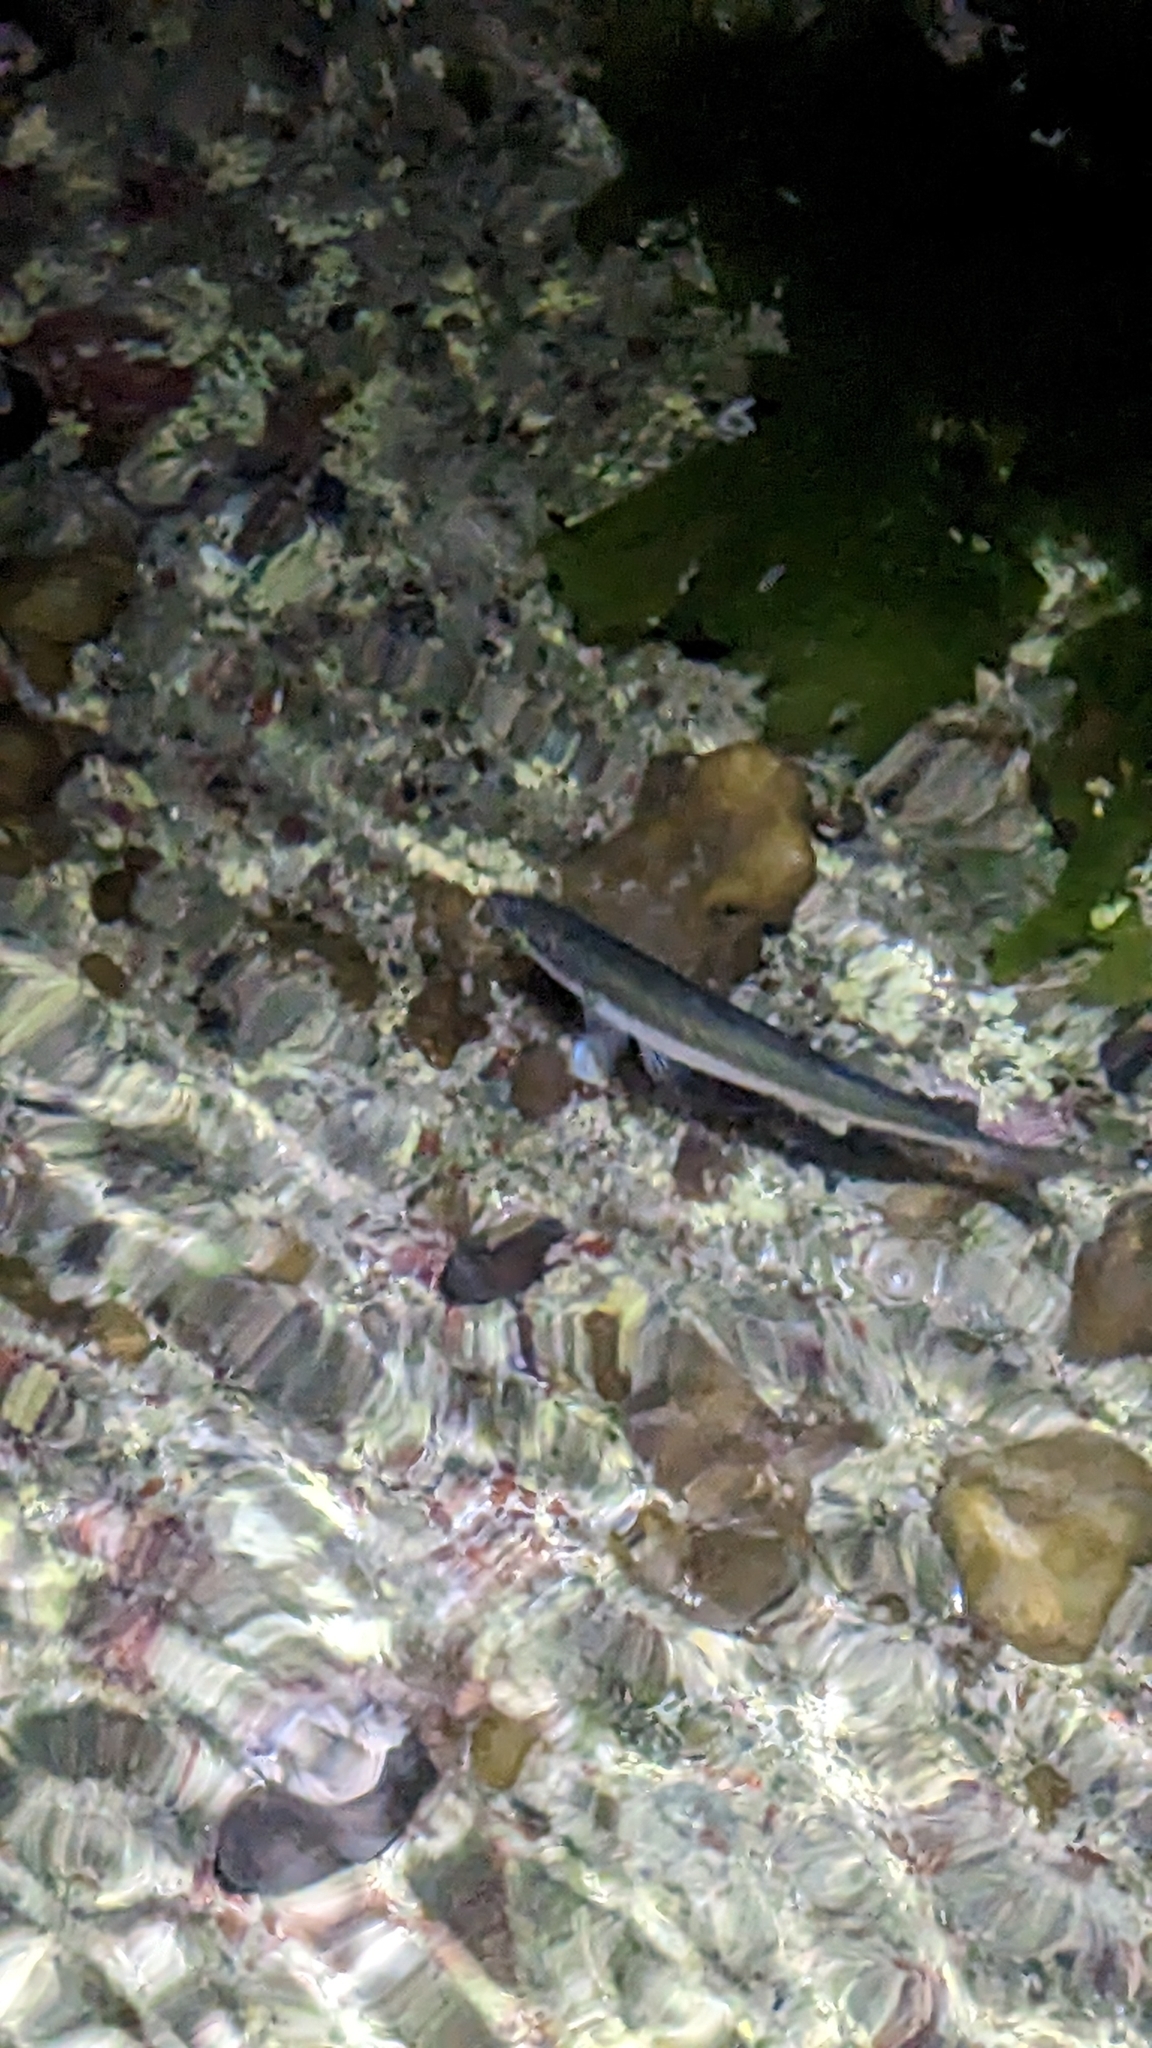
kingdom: Animalia
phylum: Chordata
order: Mugiliformes
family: Mugilidae
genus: Aldrichetta
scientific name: Aldrichetta forsteri
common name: Yellow-eye mullet
